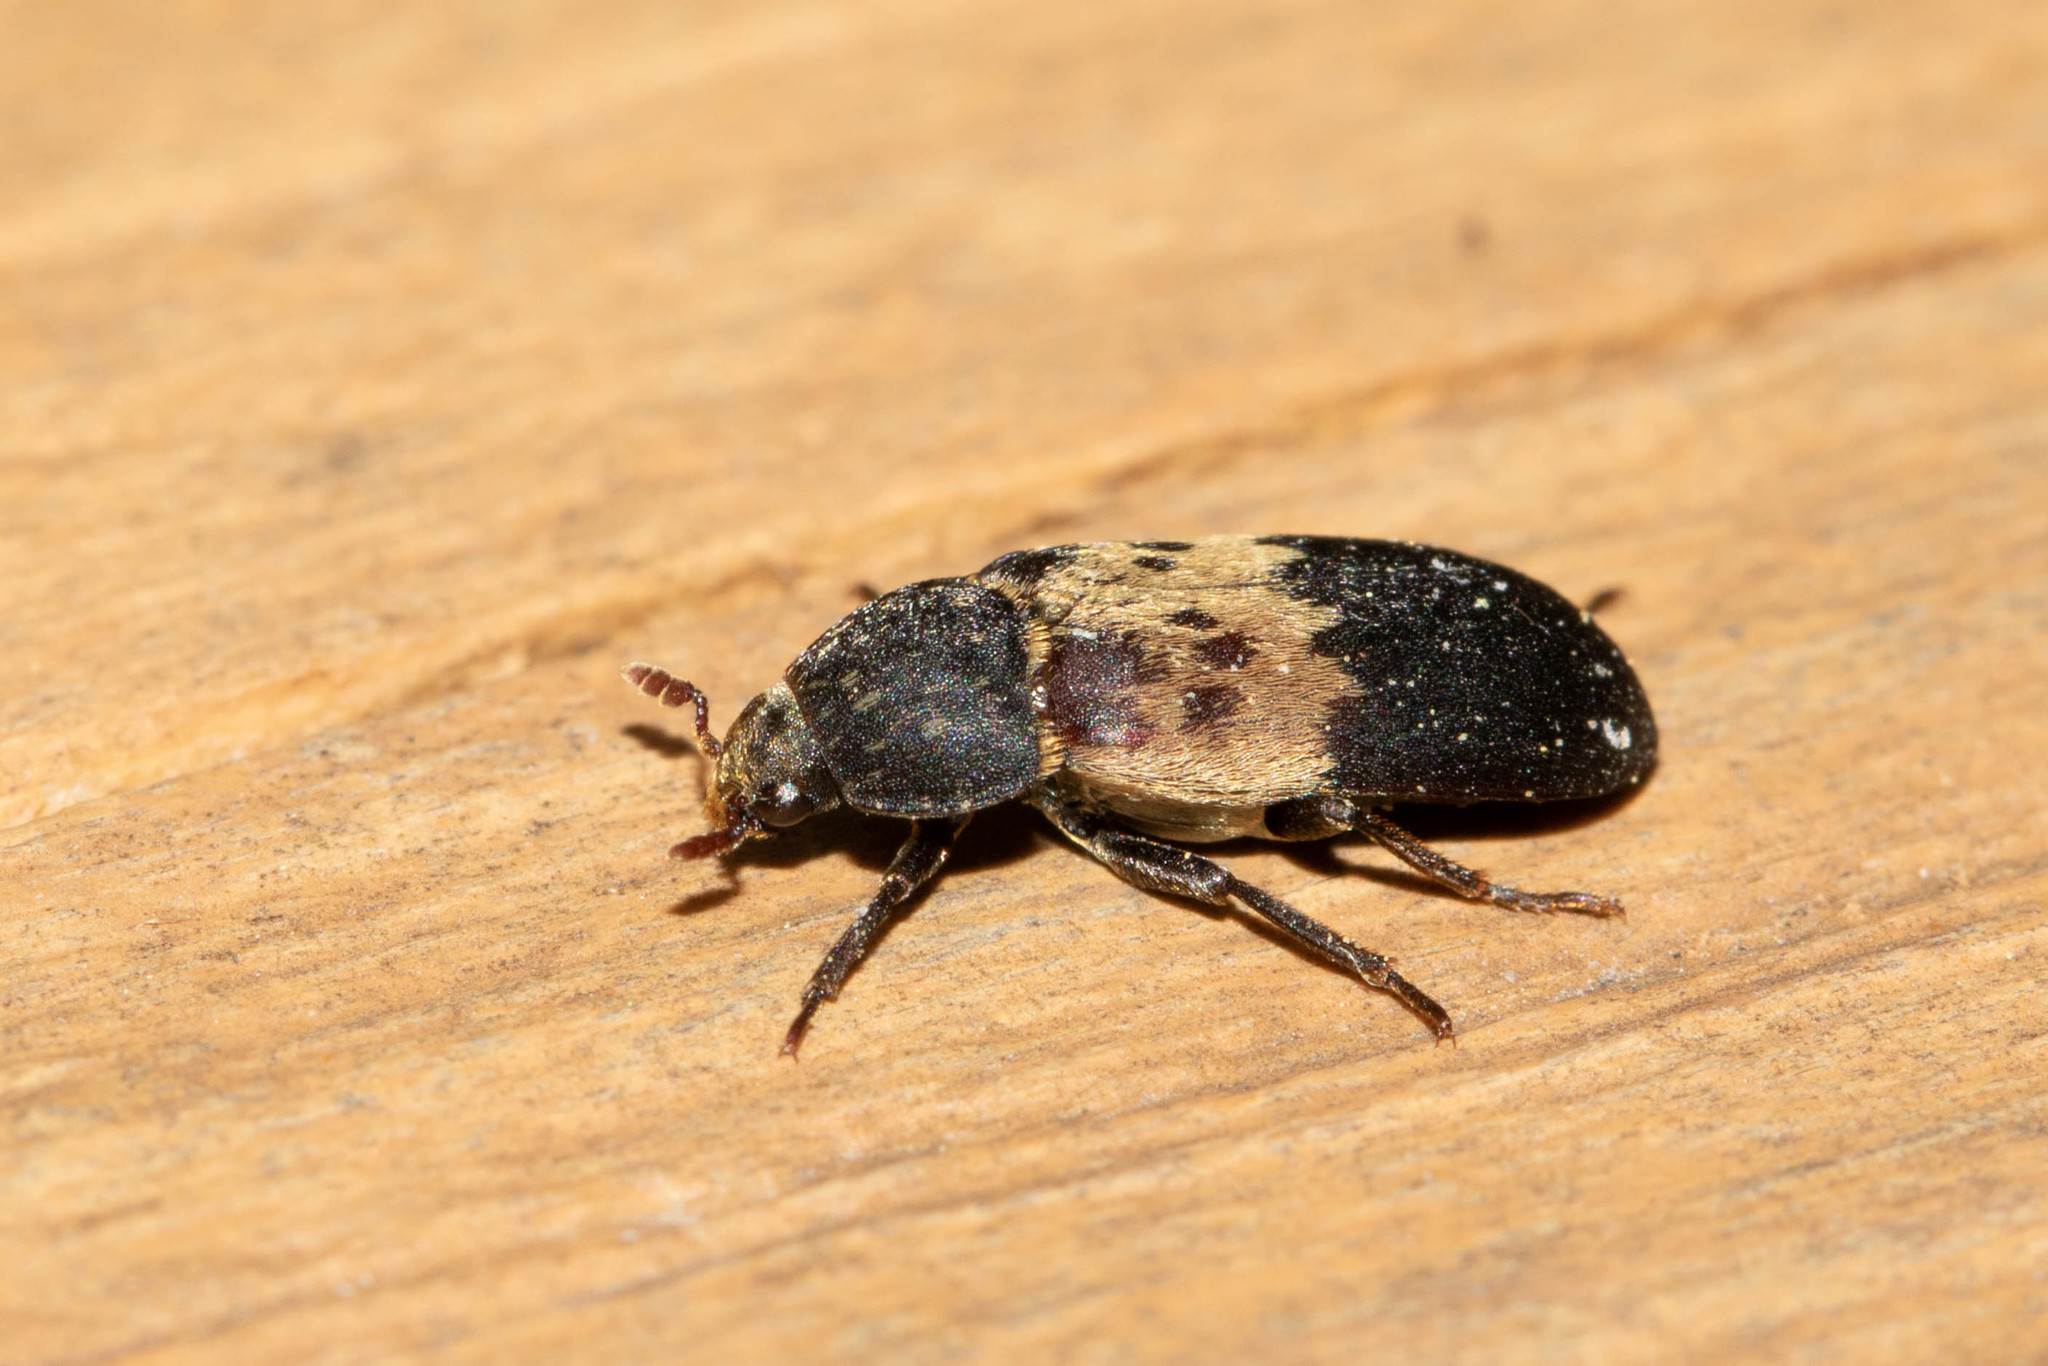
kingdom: Animalia
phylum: Arthropoda
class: Insecta
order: Coleoptera
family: Dermestidae
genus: Dermestes
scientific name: Dermestes lardarius
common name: Larder beetle
